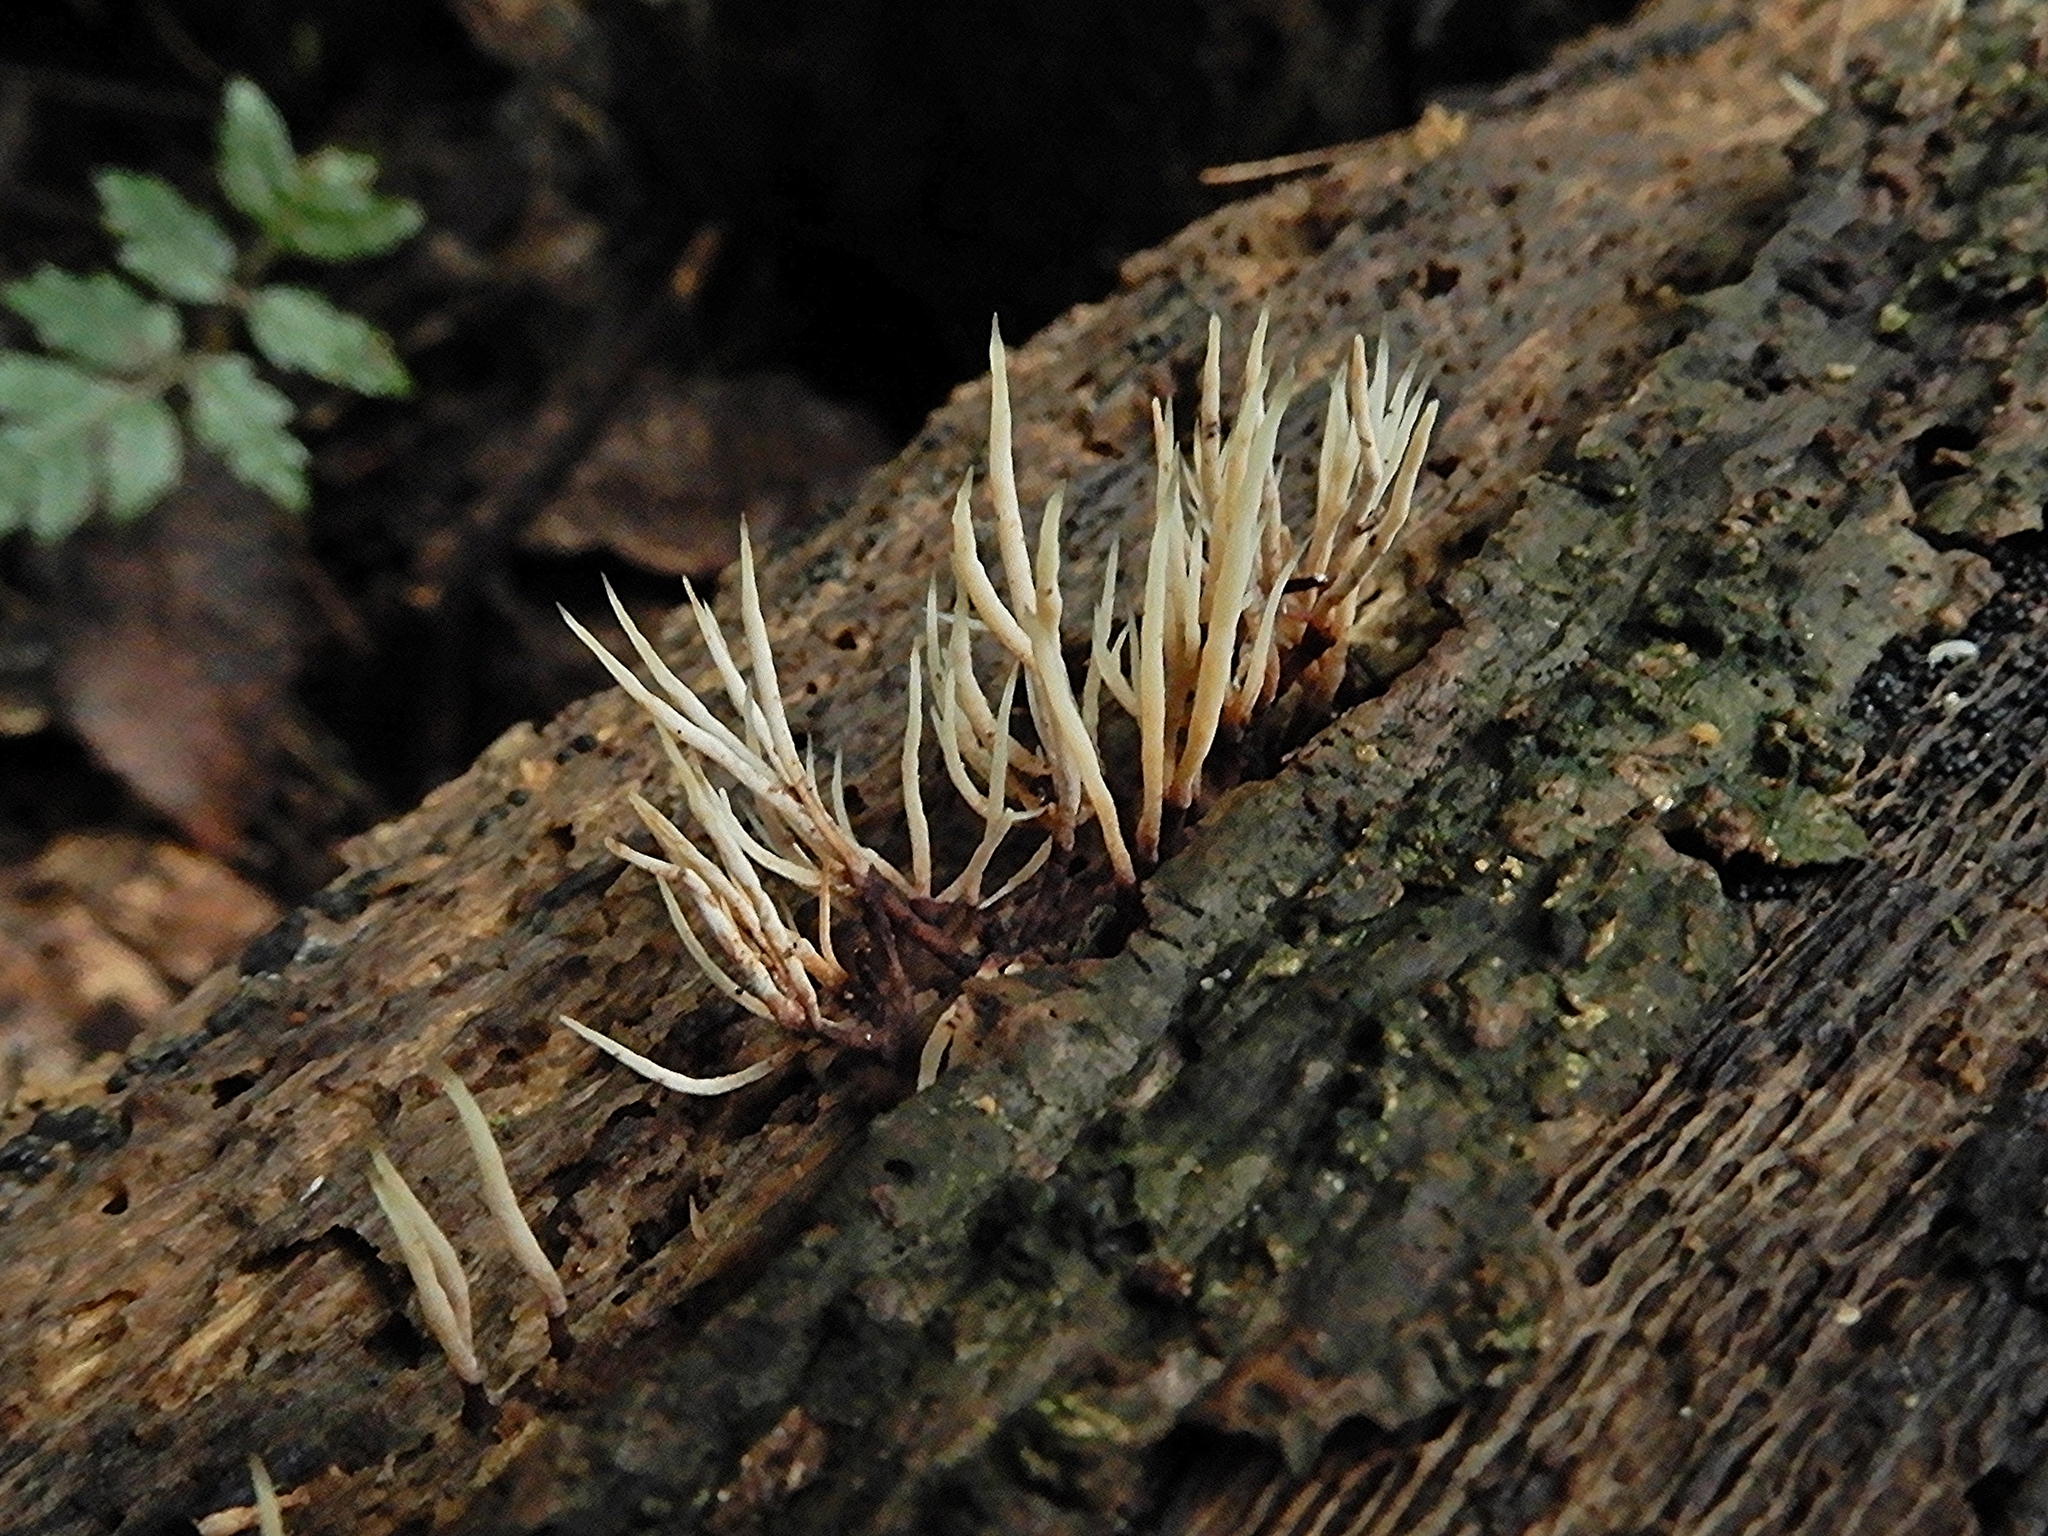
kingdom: Fungi
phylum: Basidiomycota
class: Agaricomycetes
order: Agaricales
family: Pterulaceae
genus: Pterulicium
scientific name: Pterulicium epiphyllum
